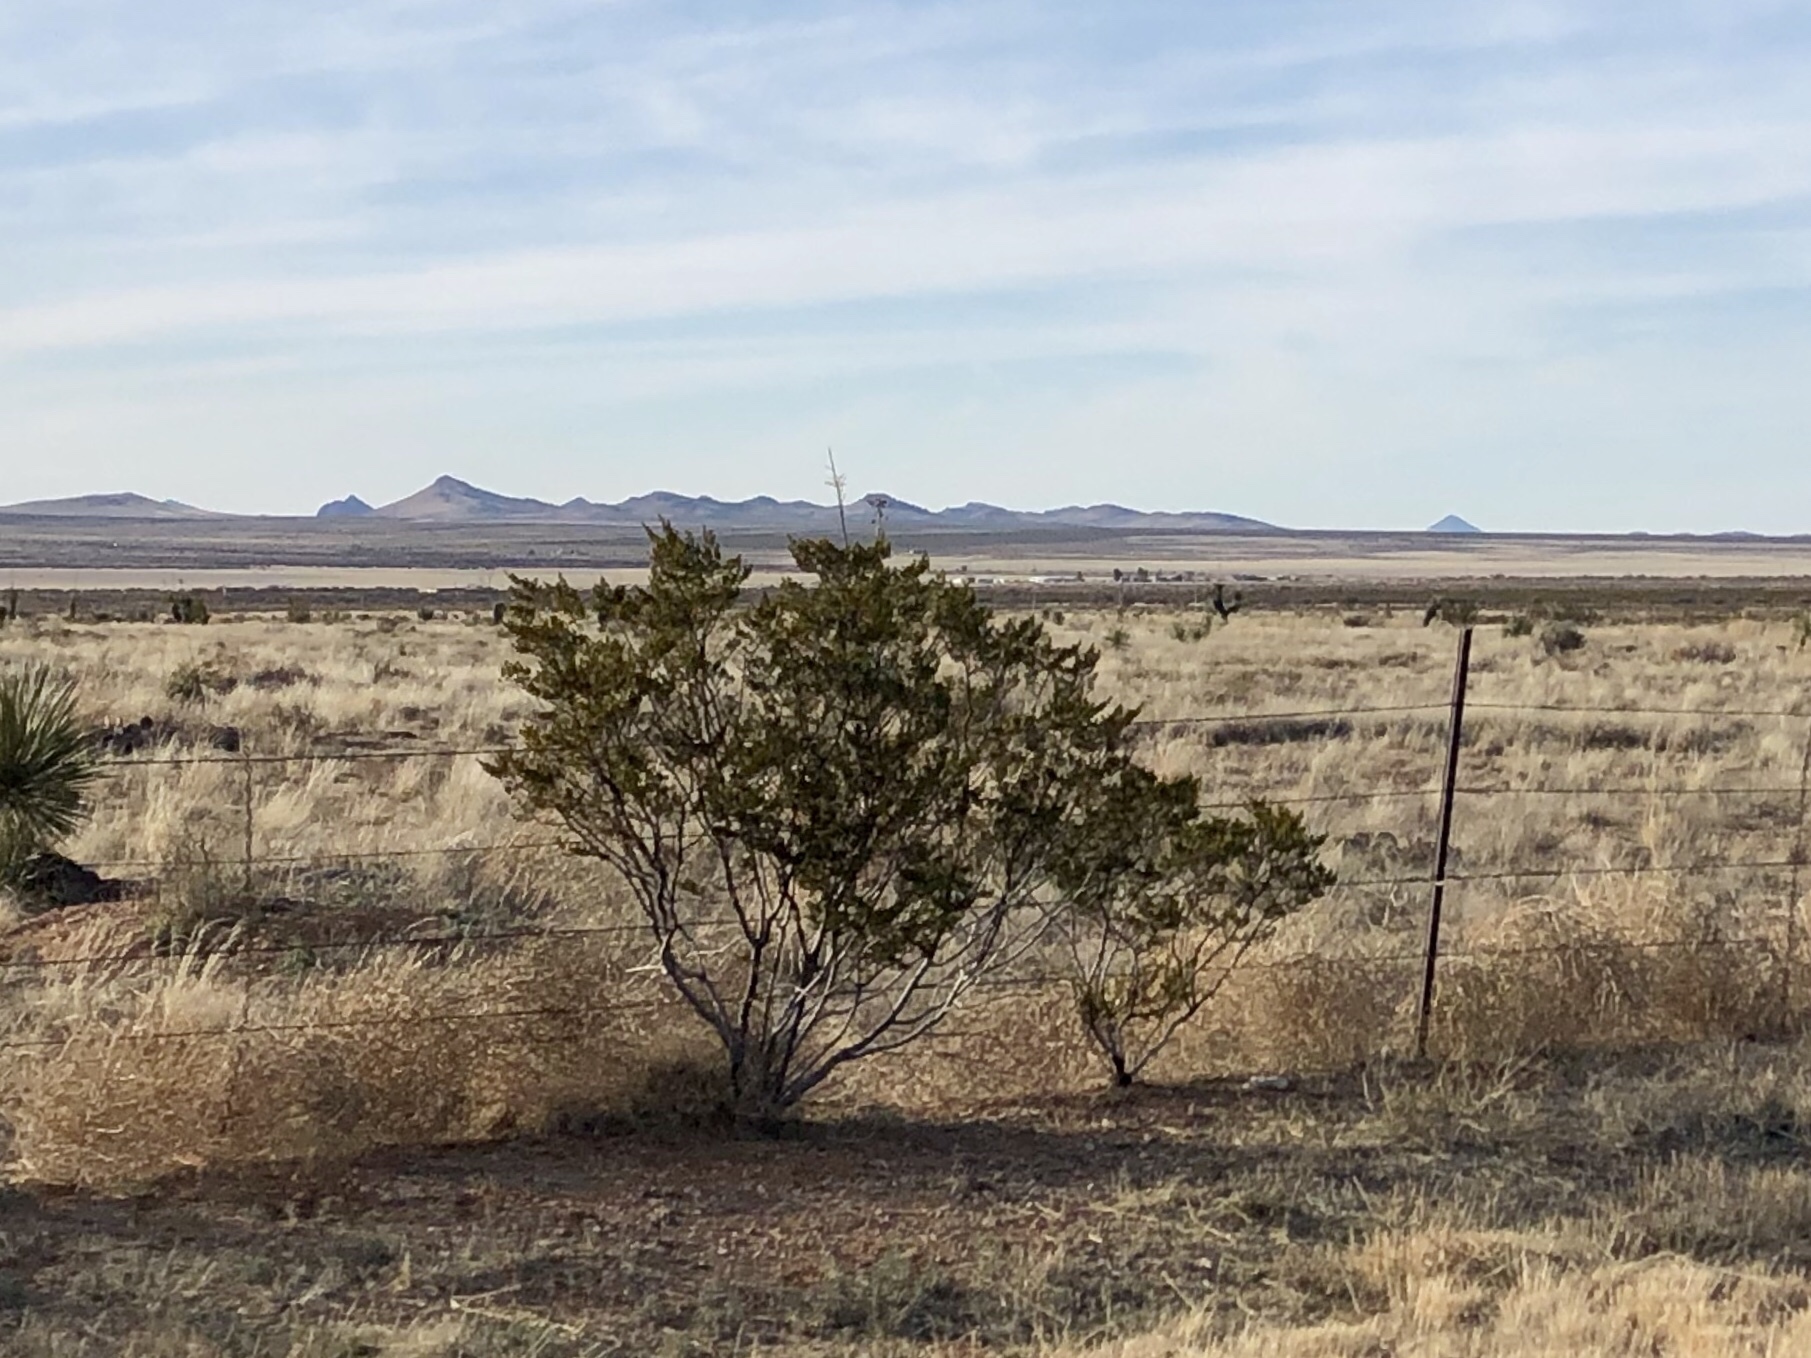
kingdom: Plantae
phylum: Tracheophyta
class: Magnoliopsida
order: Zygophyllales
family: Zygophyllaceae
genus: Larrea
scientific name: Larrea tridentata
